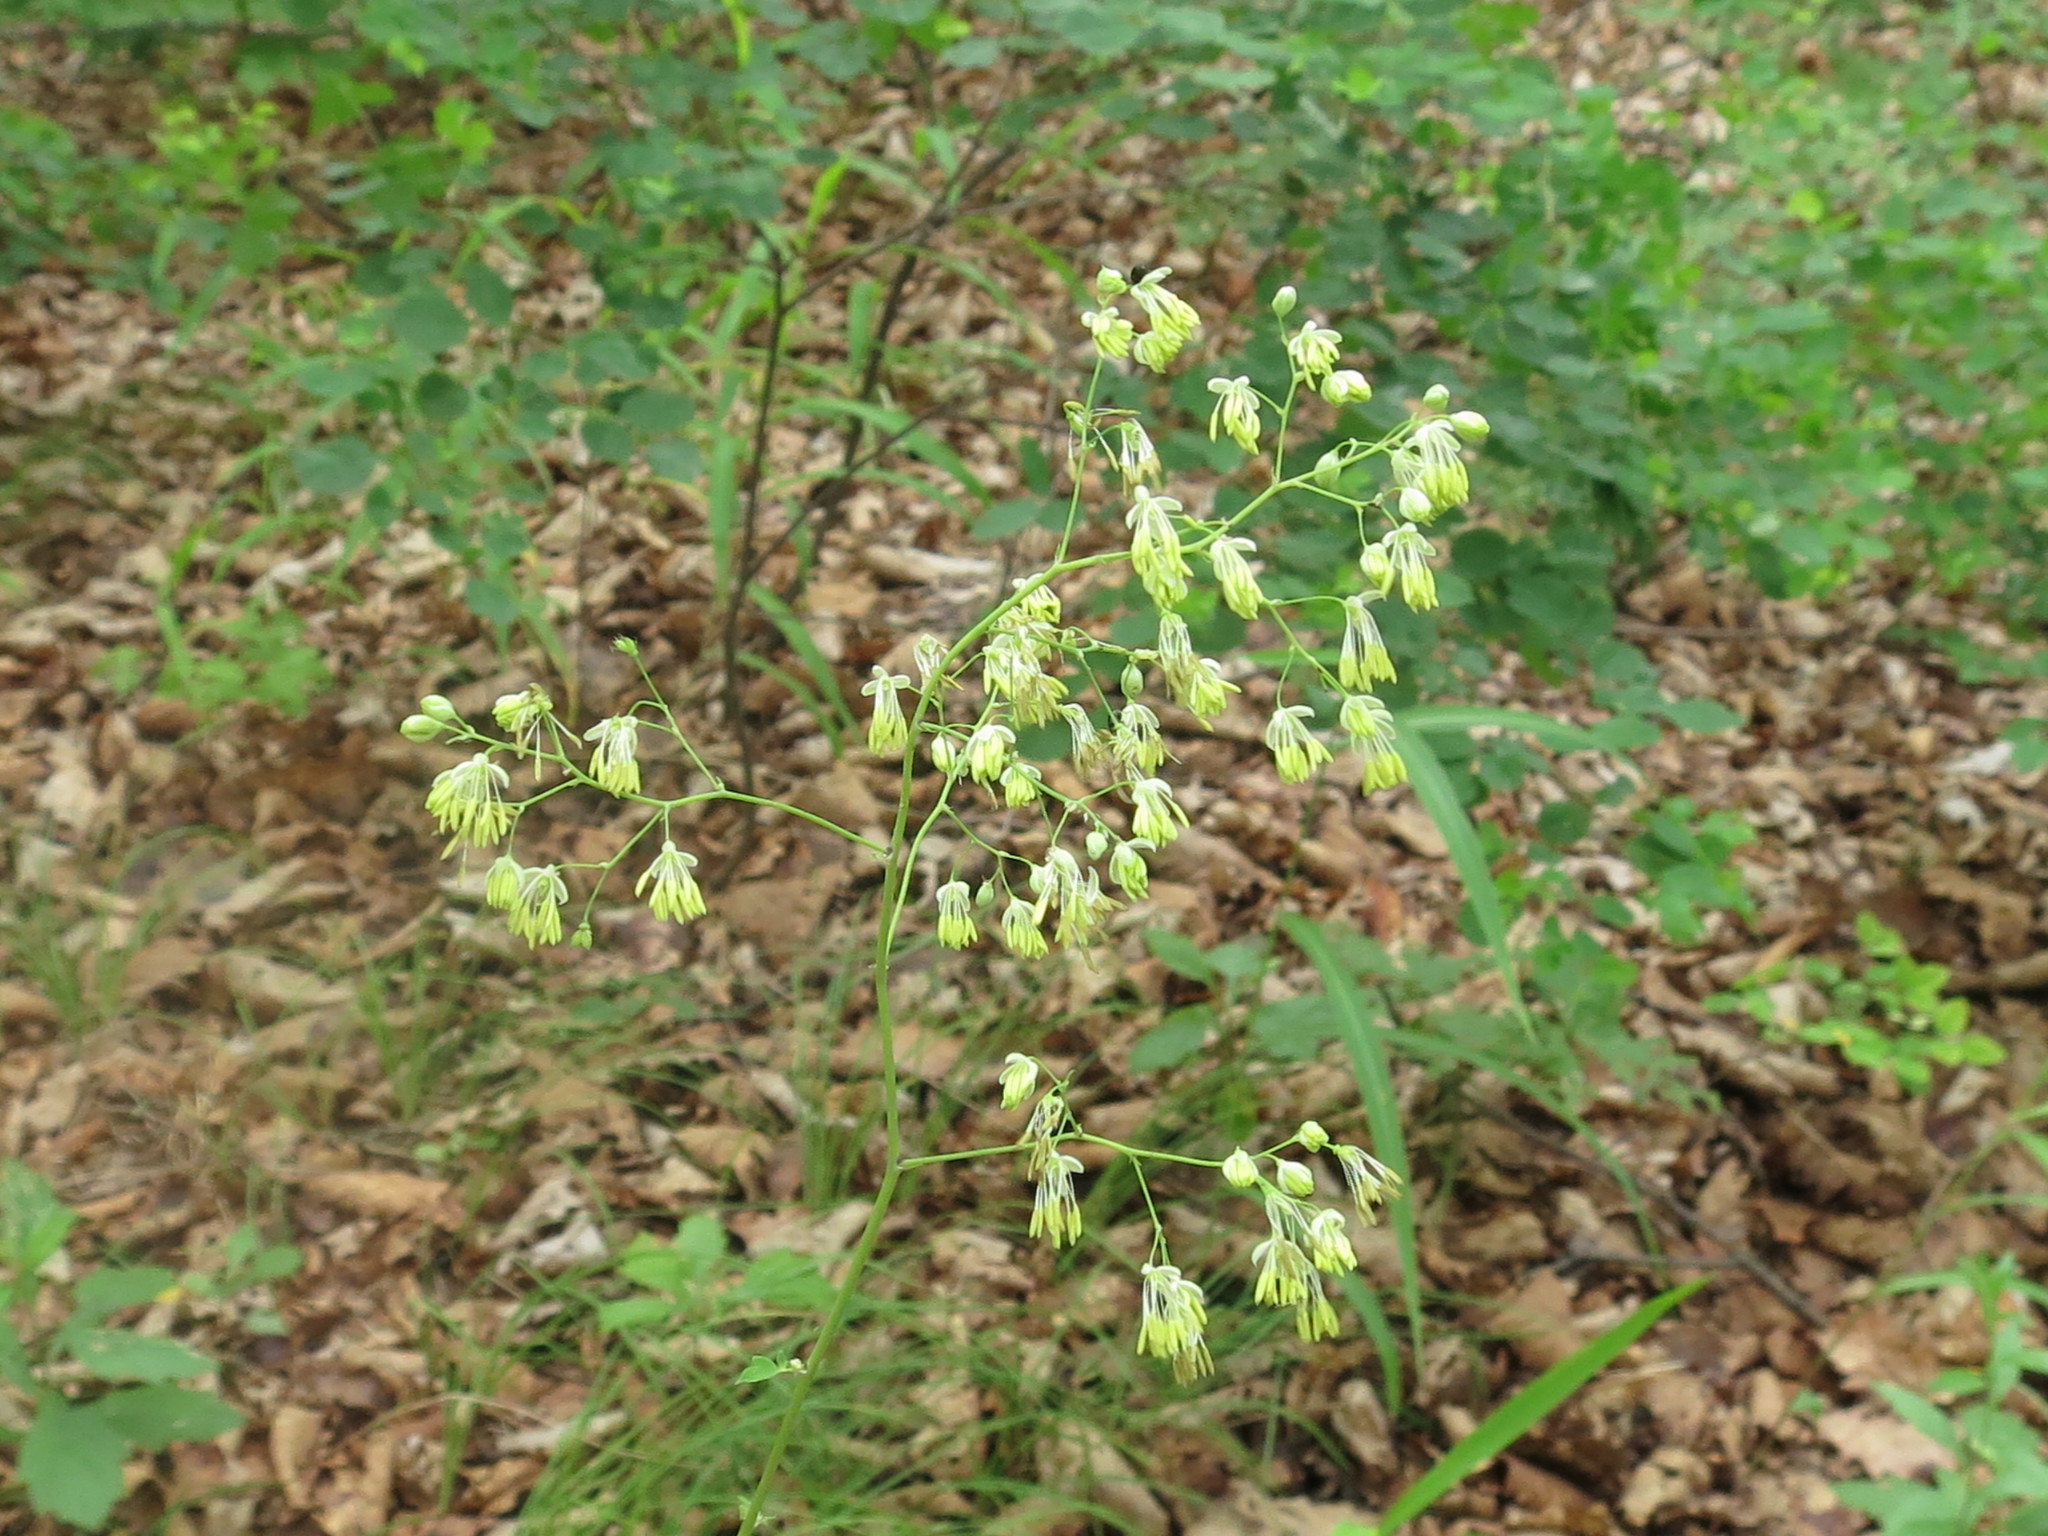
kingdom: Plantae
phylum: Tracheophyta
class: Magnoliopsida
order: Ranunculales
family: Ranunculaceae
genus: Thalictrum
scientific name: Thalictrum minus
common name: Lesser meadow-rue
